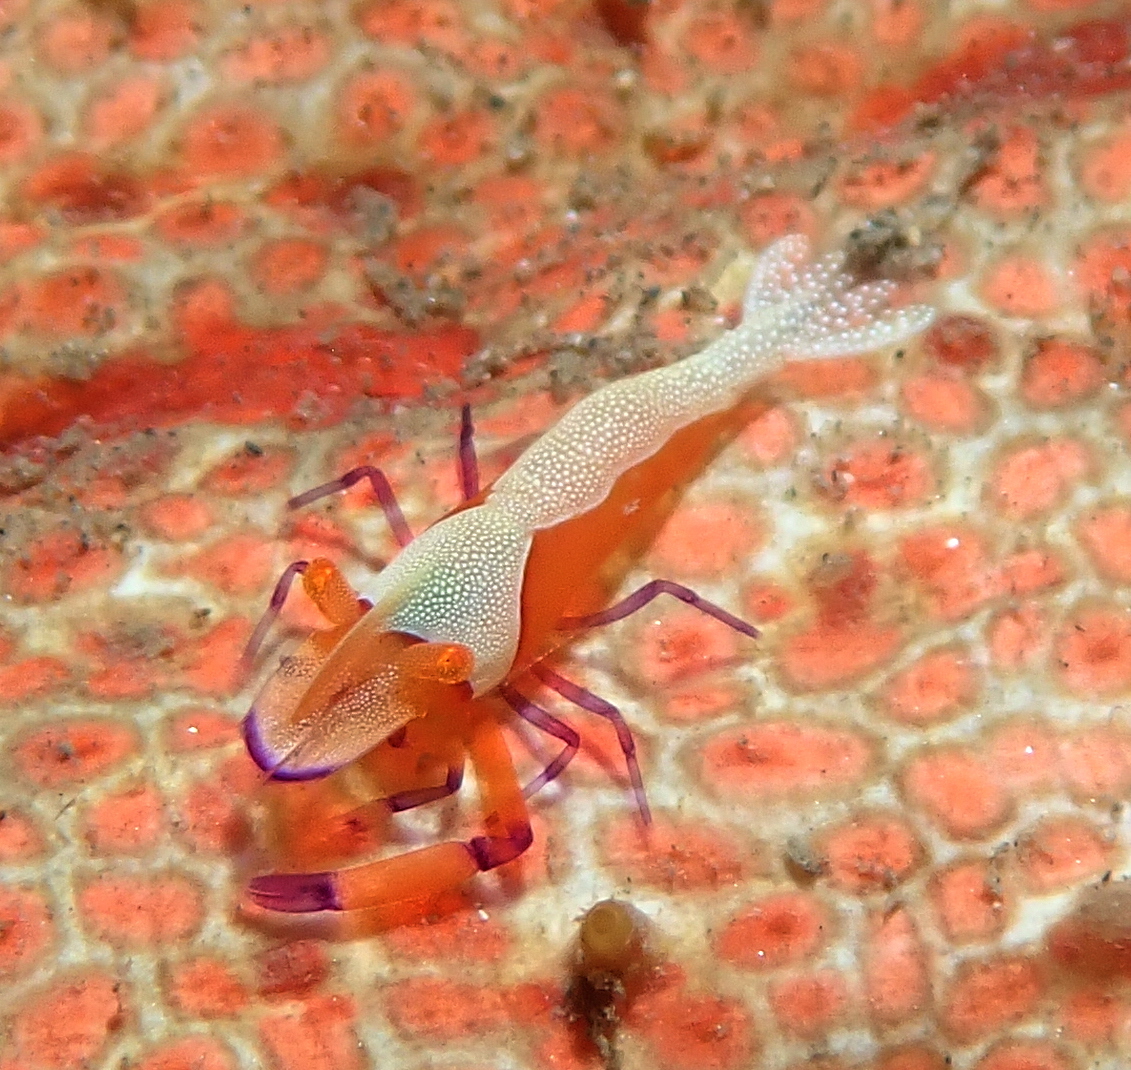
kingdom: Animalia
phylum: Arthropoda
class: Malacostraca
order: Decapoda
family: Palaemonidae
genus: Periclimenes
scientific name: Periclimenes rex
